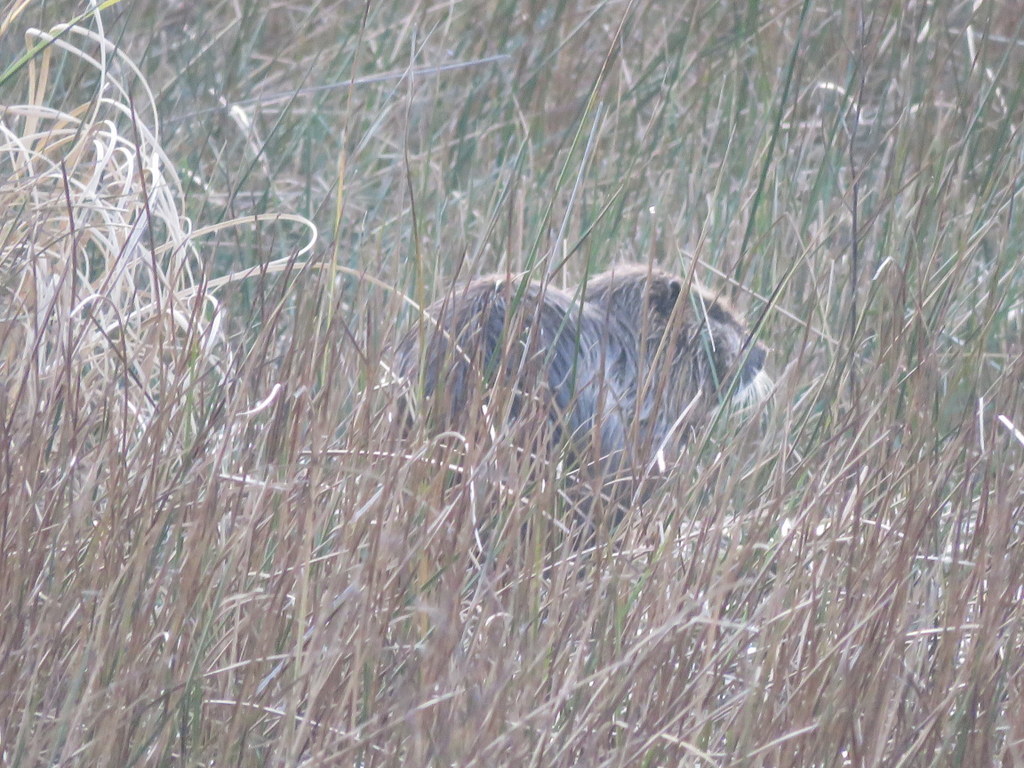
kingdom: Animalia
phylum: Chordata
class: Mammalia
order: Rodentia
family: Myocastoridae
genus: Myocastor
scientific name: Myocastor coypus
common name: Coypu
